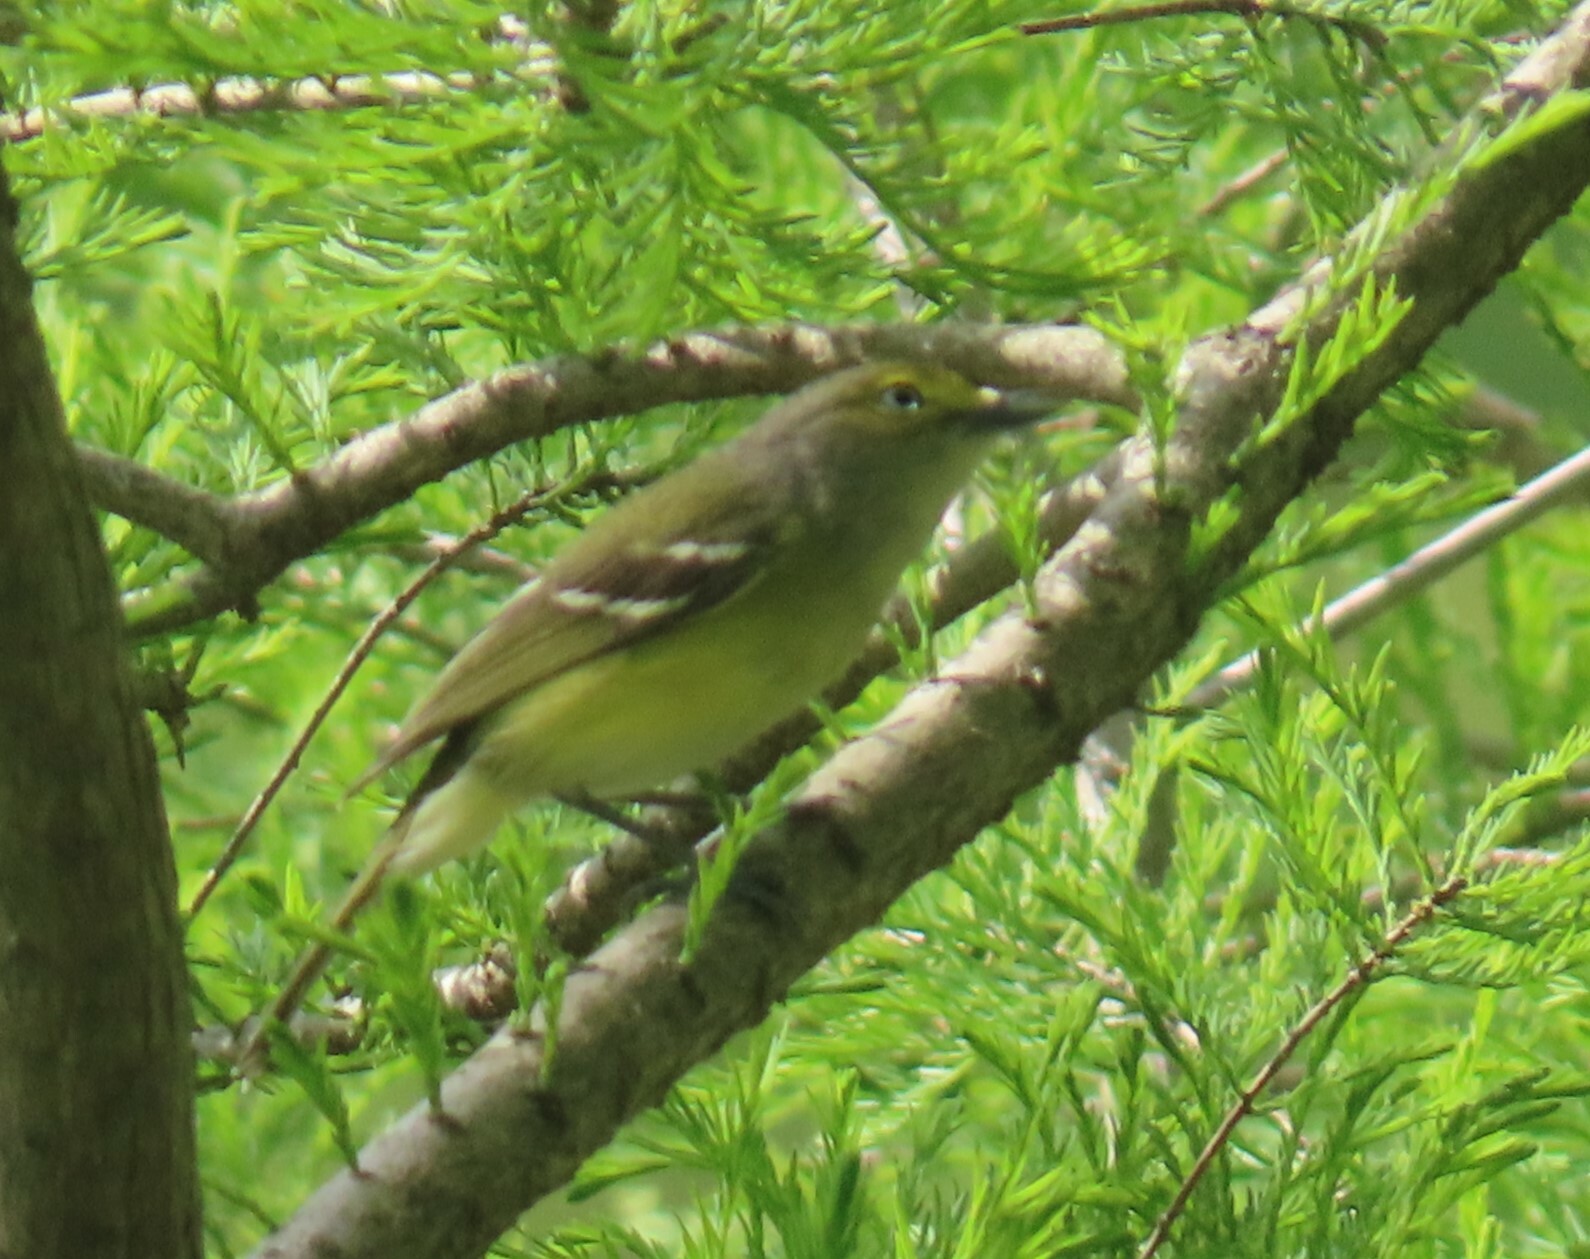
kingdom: Animalia
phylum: Chordata
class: Aves
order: Passeriformes
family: Vireonidae
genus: Vireo
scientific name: Vireo griseus
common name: White-eyed vireo
